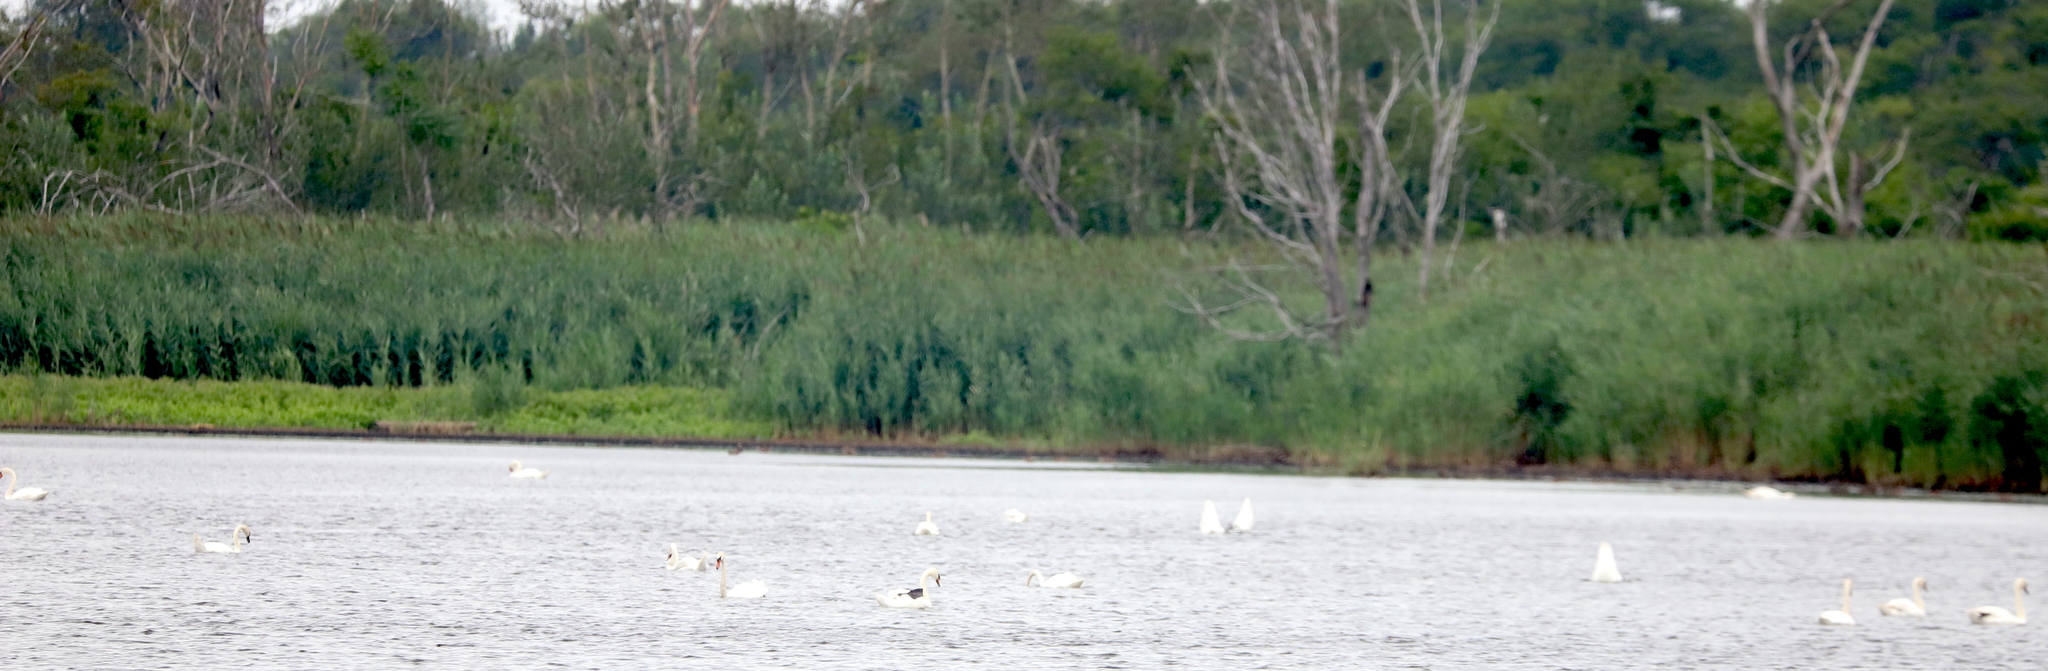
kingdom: Animalia
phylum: Chordata
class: Aves
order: Anseriformes
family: Anatidae
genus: Cygnus
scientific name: Cygnus olor
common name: Mute swan
